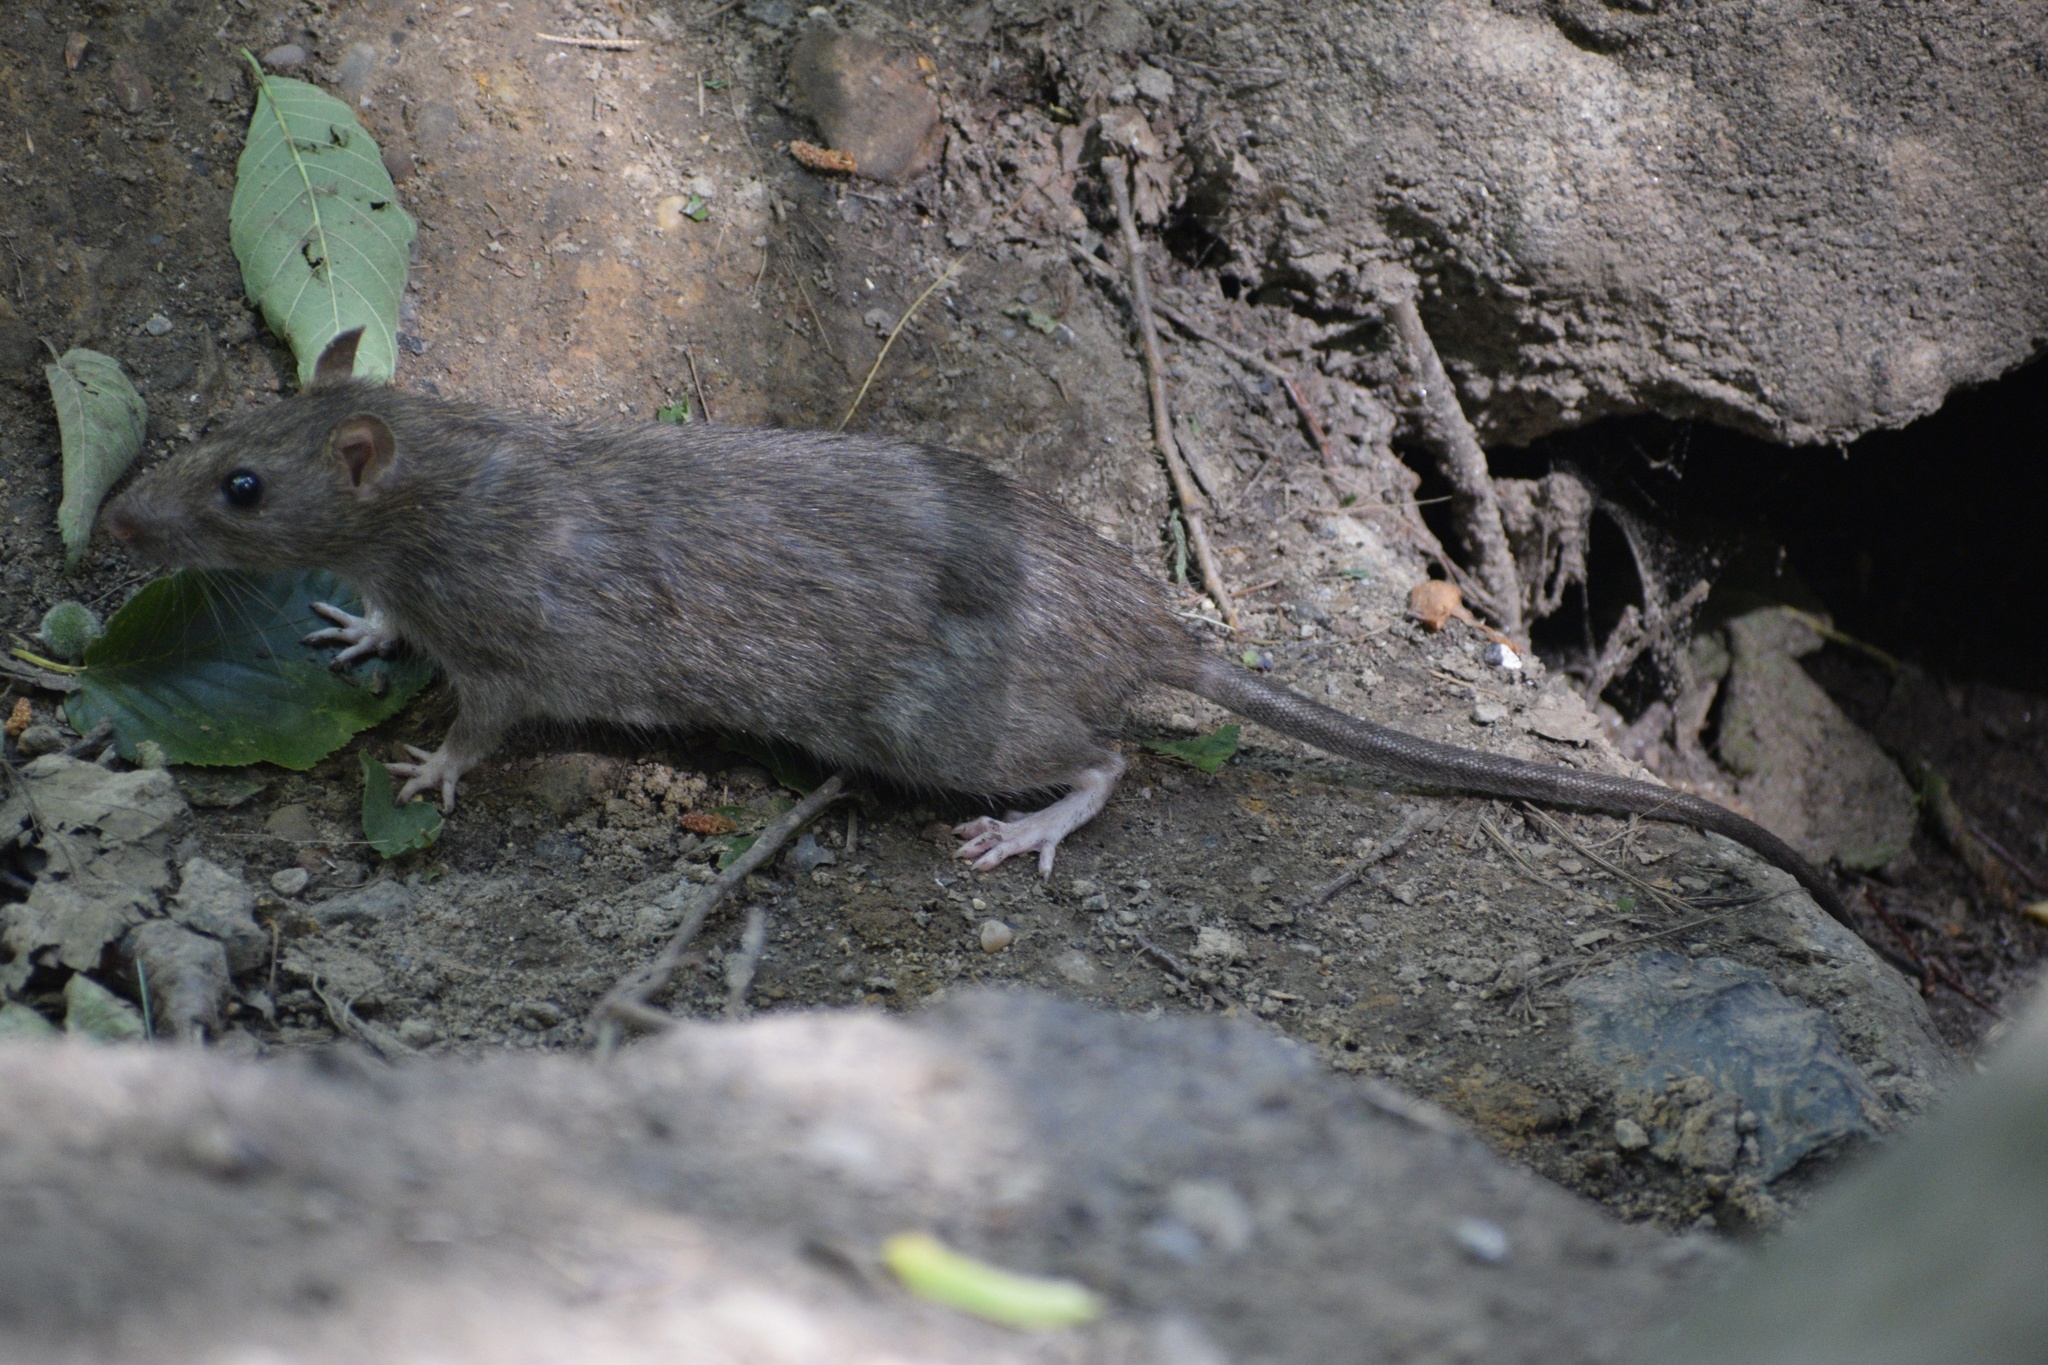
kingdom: Animalia
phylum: Chordata
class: Mammalia
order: Rodentia
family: Muridae
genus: Rattus
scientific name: Rattus norvegicus
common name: Brown rat
